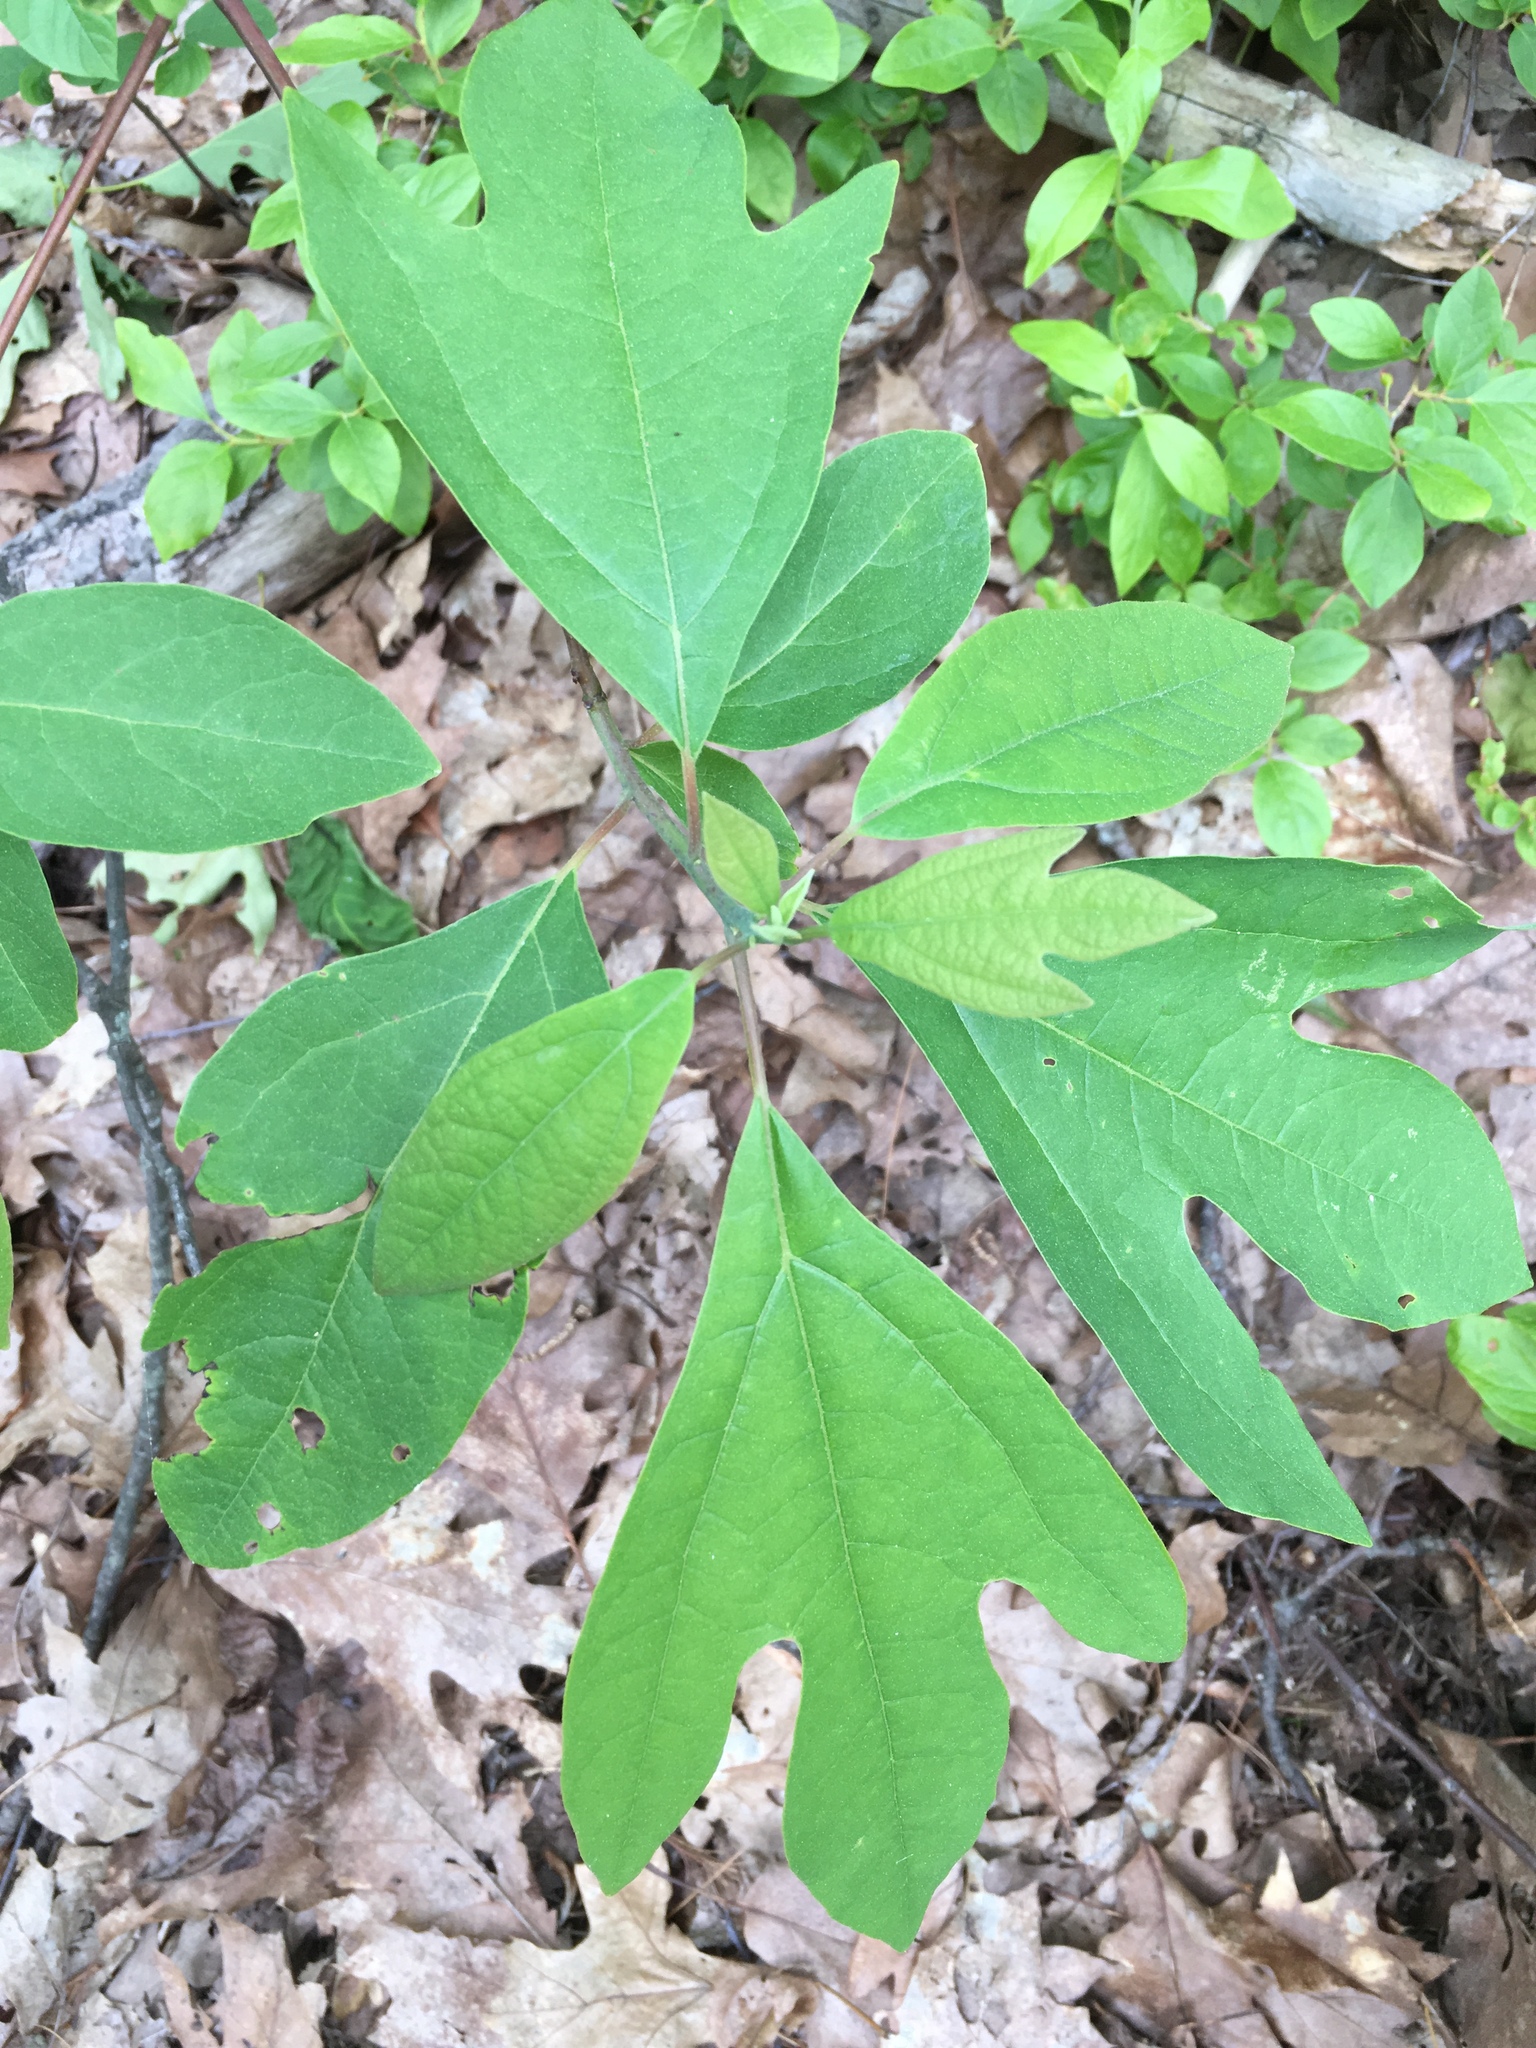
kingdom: Plantae
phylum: Tracheophyta
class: Magnoliopsida
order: Laurales
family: Lauraceae
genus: Sassafras
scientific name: Sassafras albidum
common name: Sassafras
